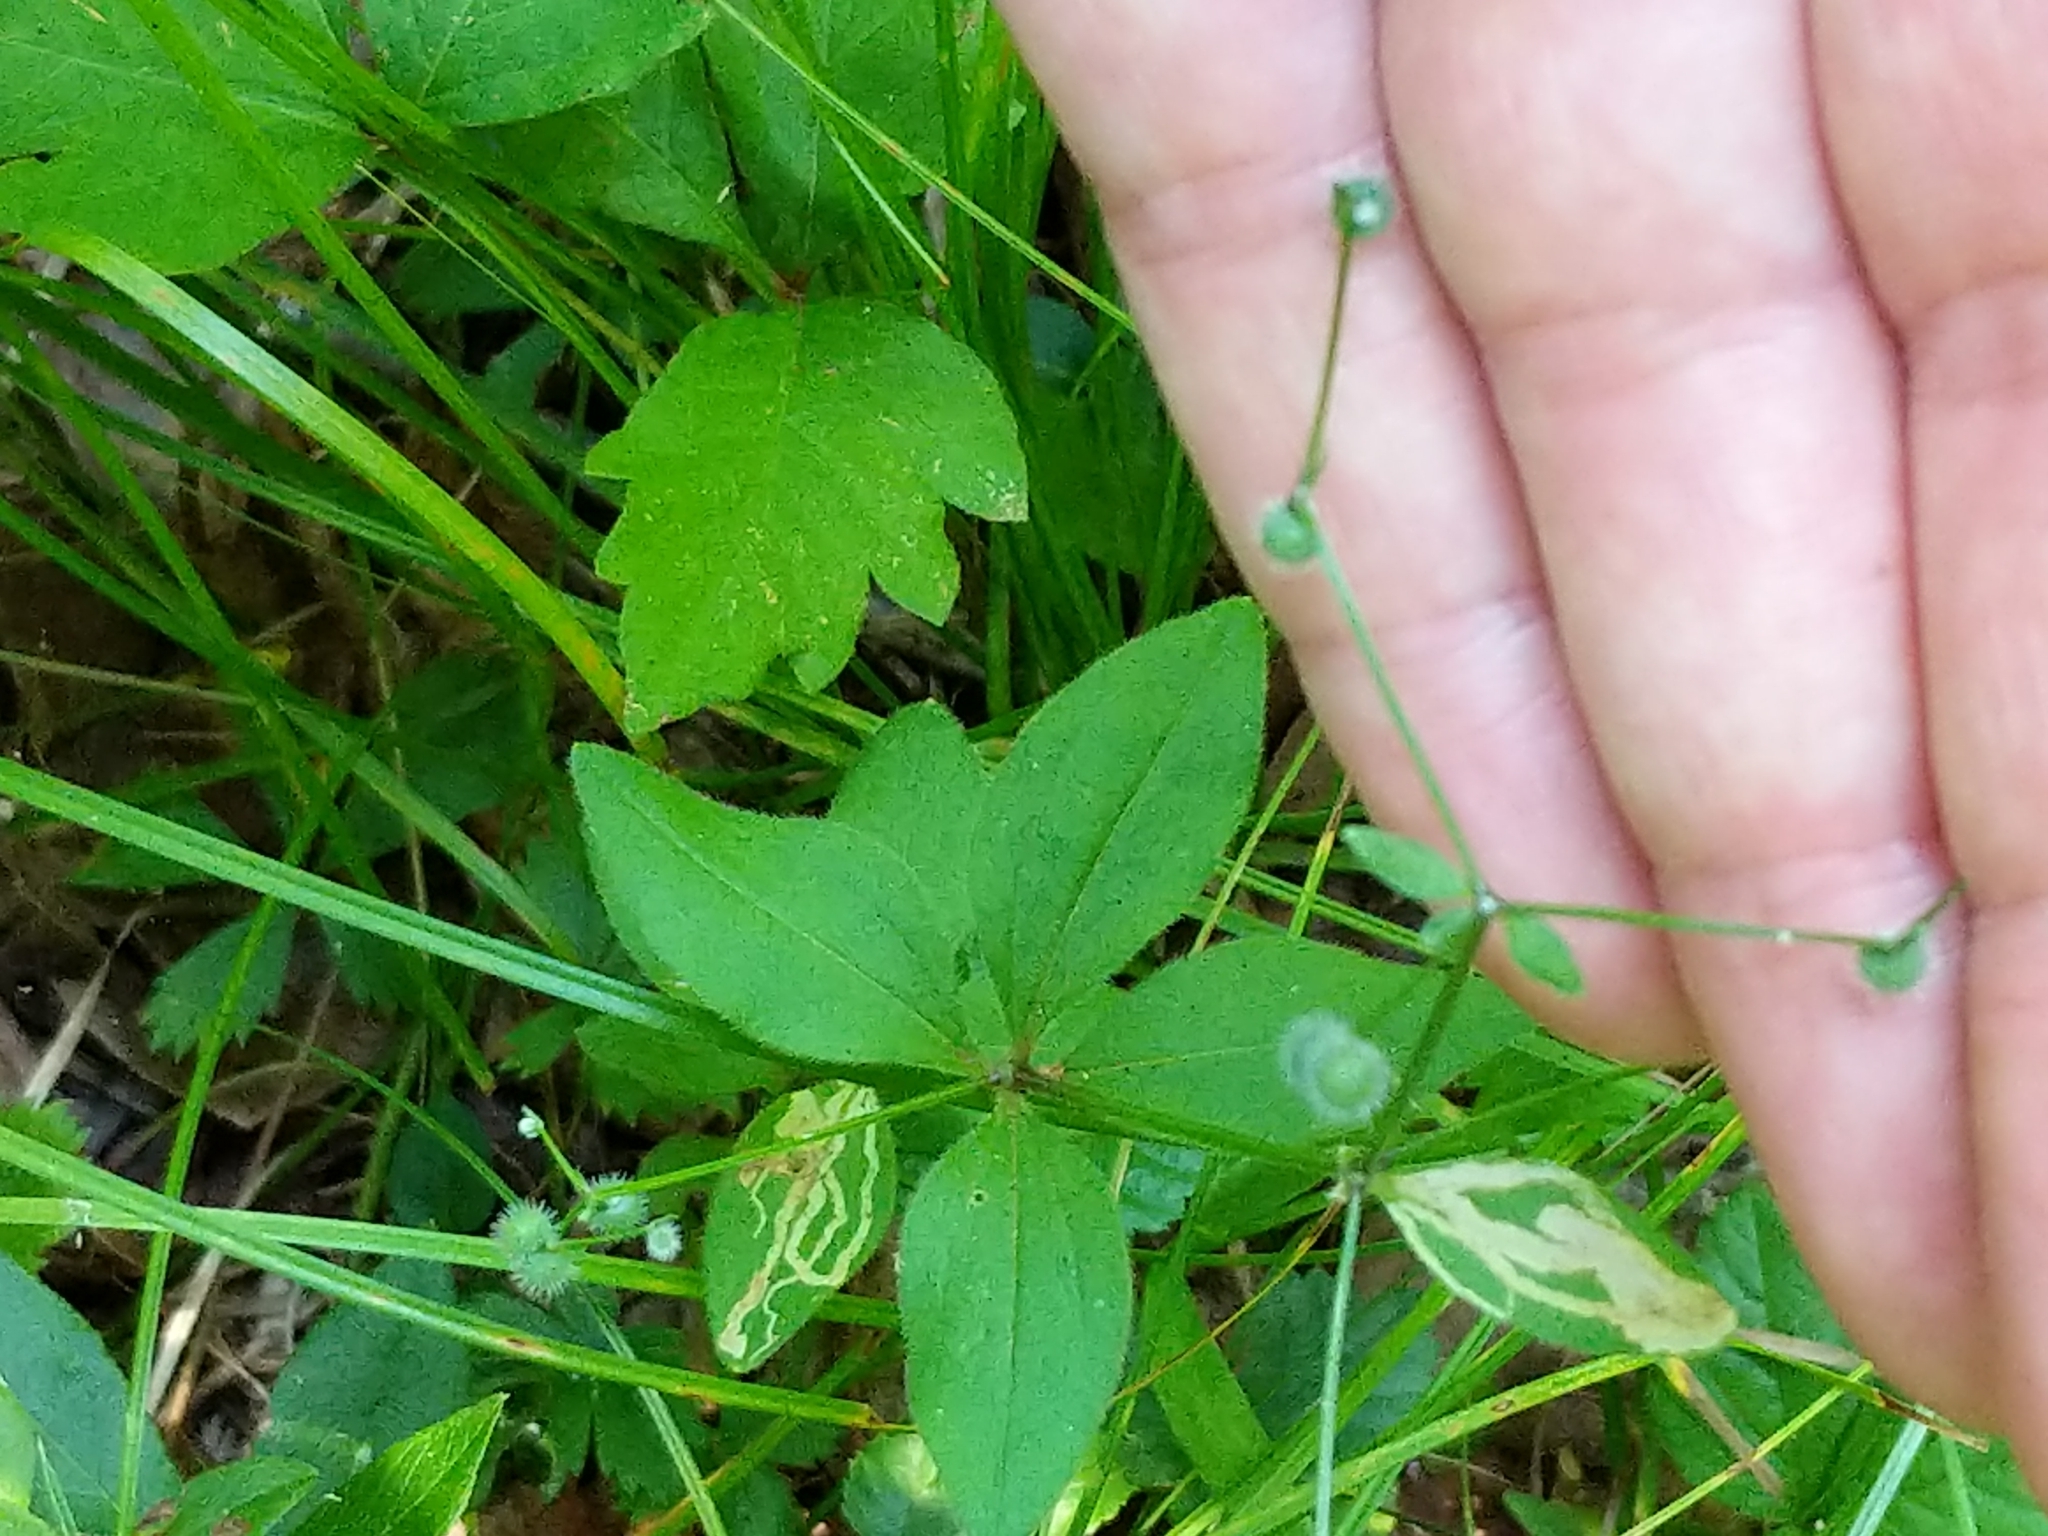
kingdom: Animalia
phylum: Arthropoda
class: Insecta
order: Diptera
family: Agromyzidae
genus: Liriomyza
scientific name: Liriomyza galiivora
